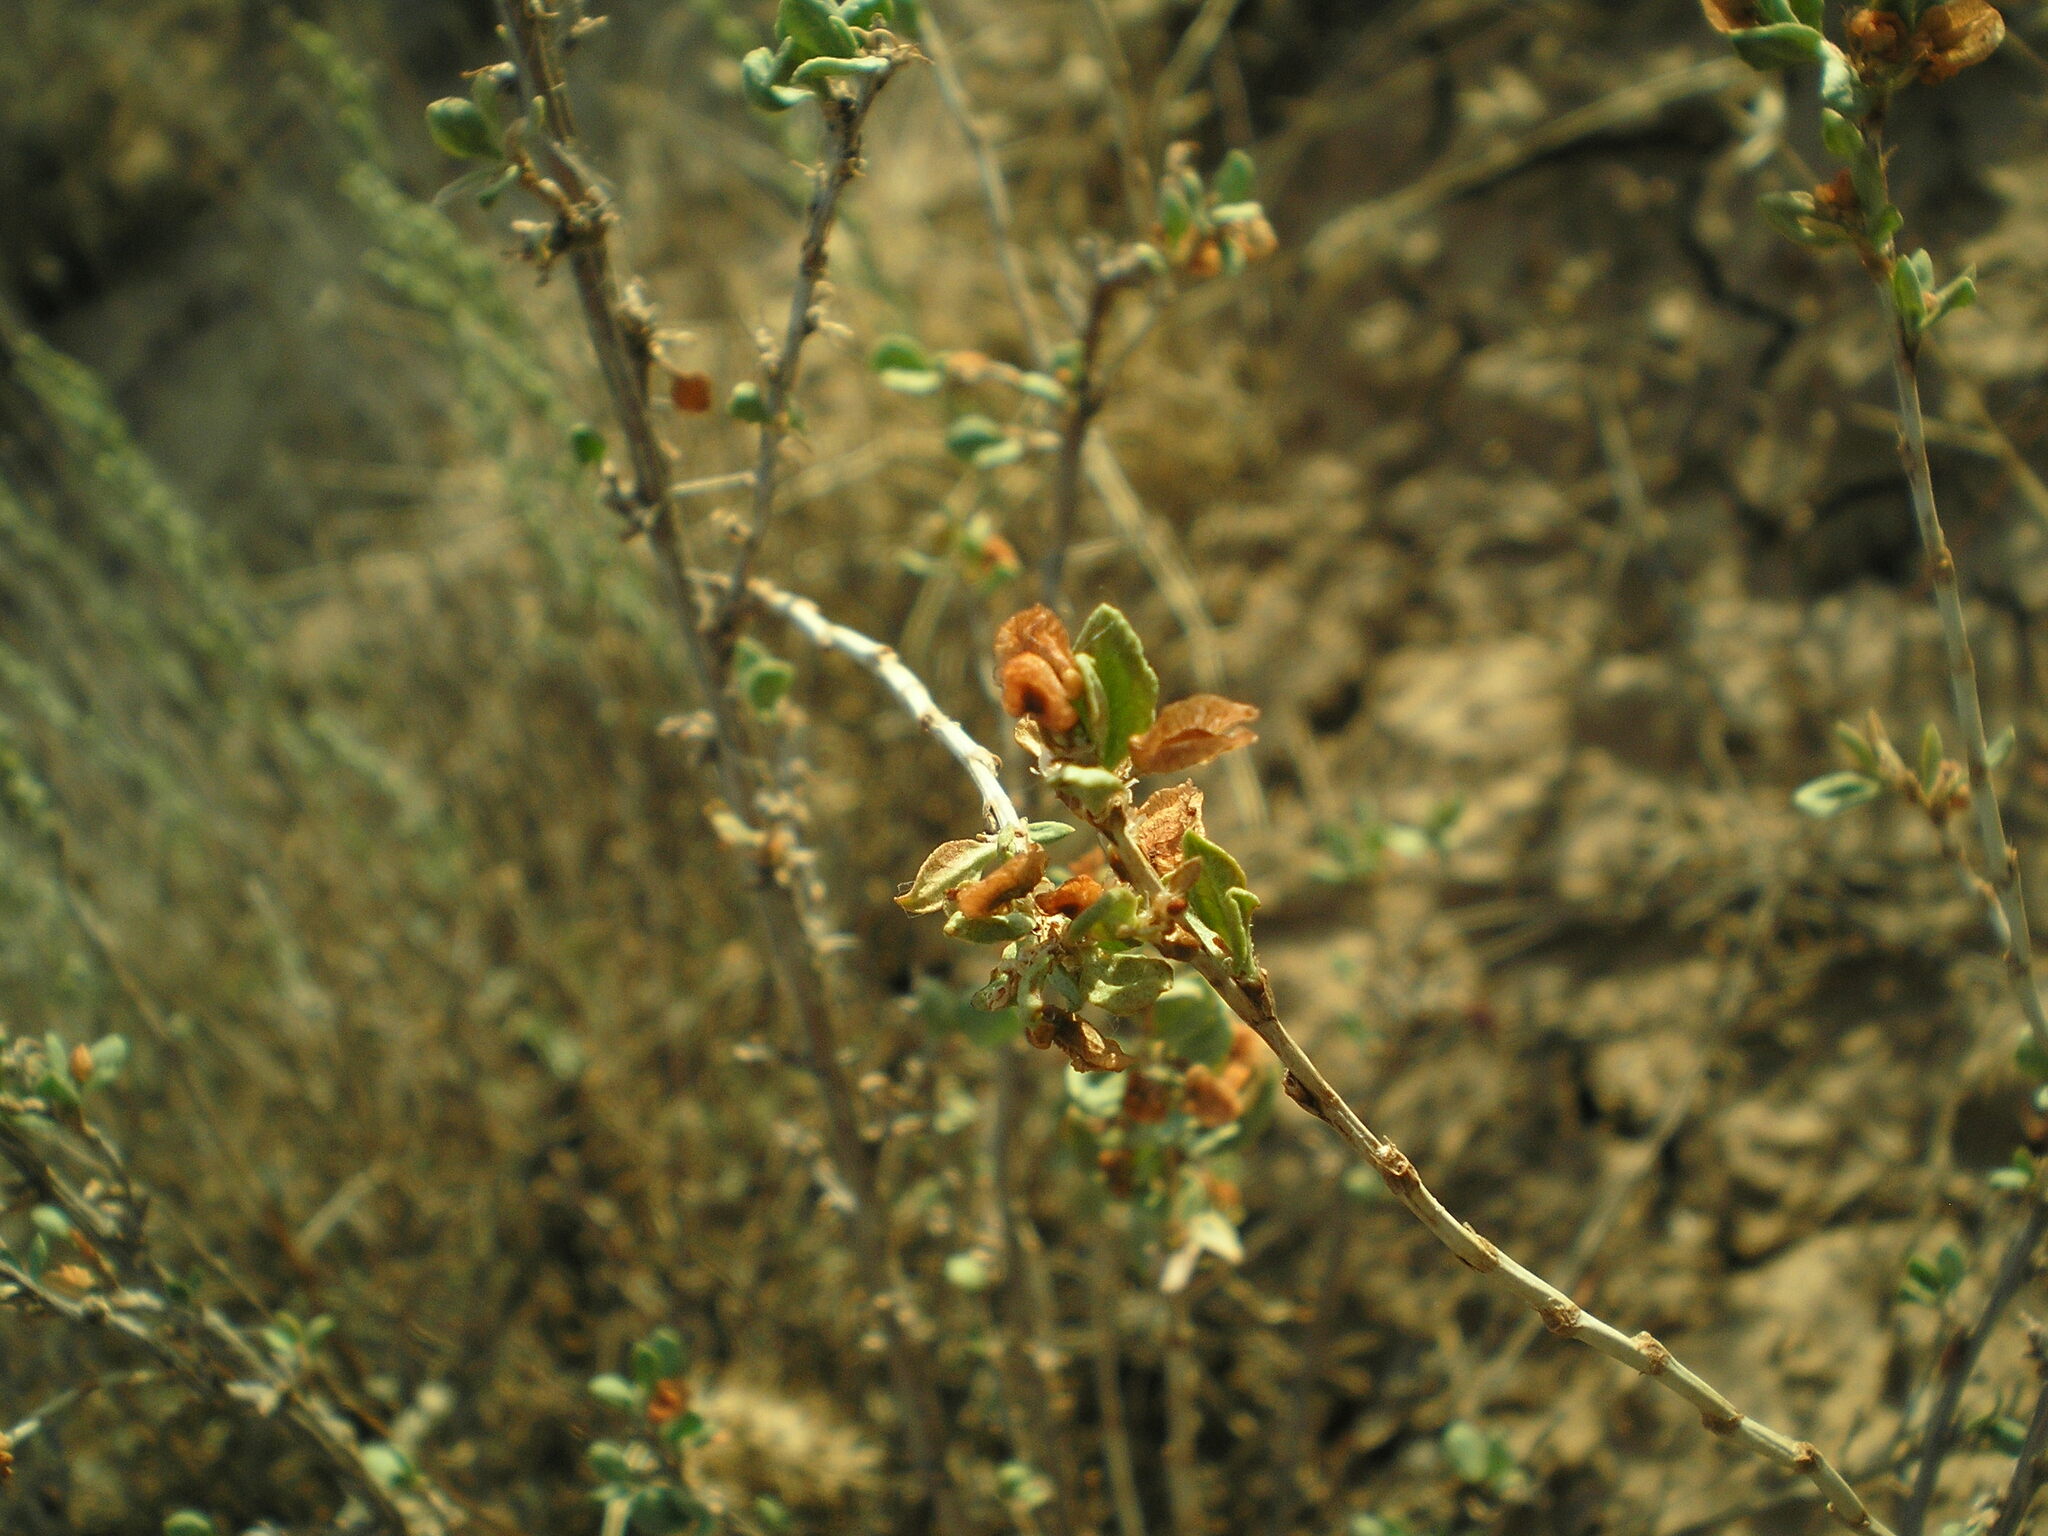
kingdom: Plantae
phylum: Tracheophyta
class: Magnoliopsida
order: Caryophyllales
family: Polygonaceae
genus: Atraphaxis
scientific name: Atraphaxis replicata
